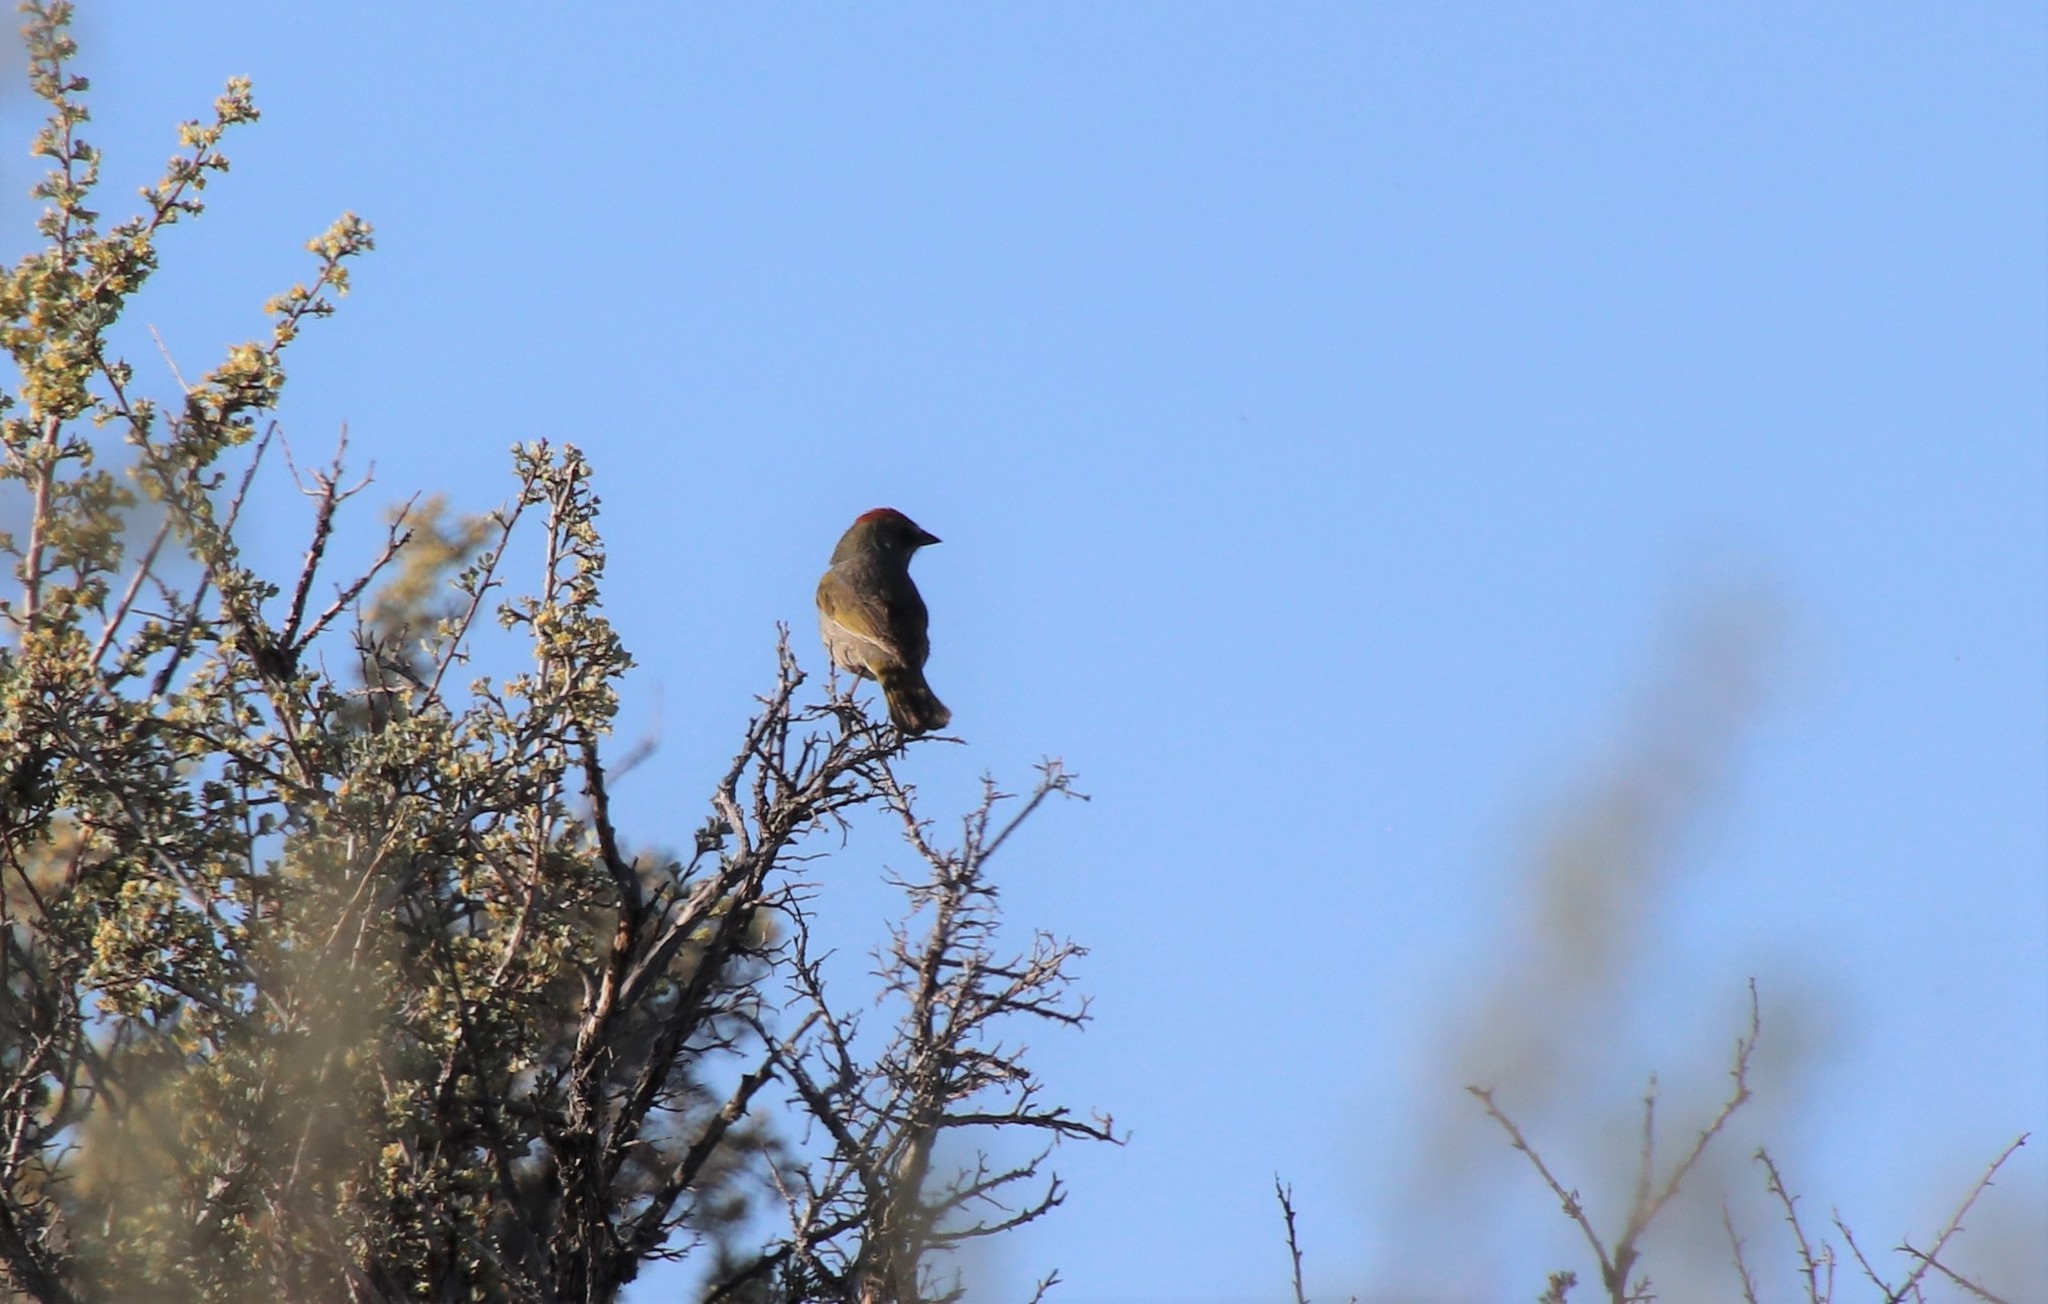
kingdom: Animalia
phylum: Chordata
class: Aves
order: Passeriformes
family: Passerellidae
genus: Pipilo
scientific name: Pipilo chlorurus
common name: Green-tailed towhee
